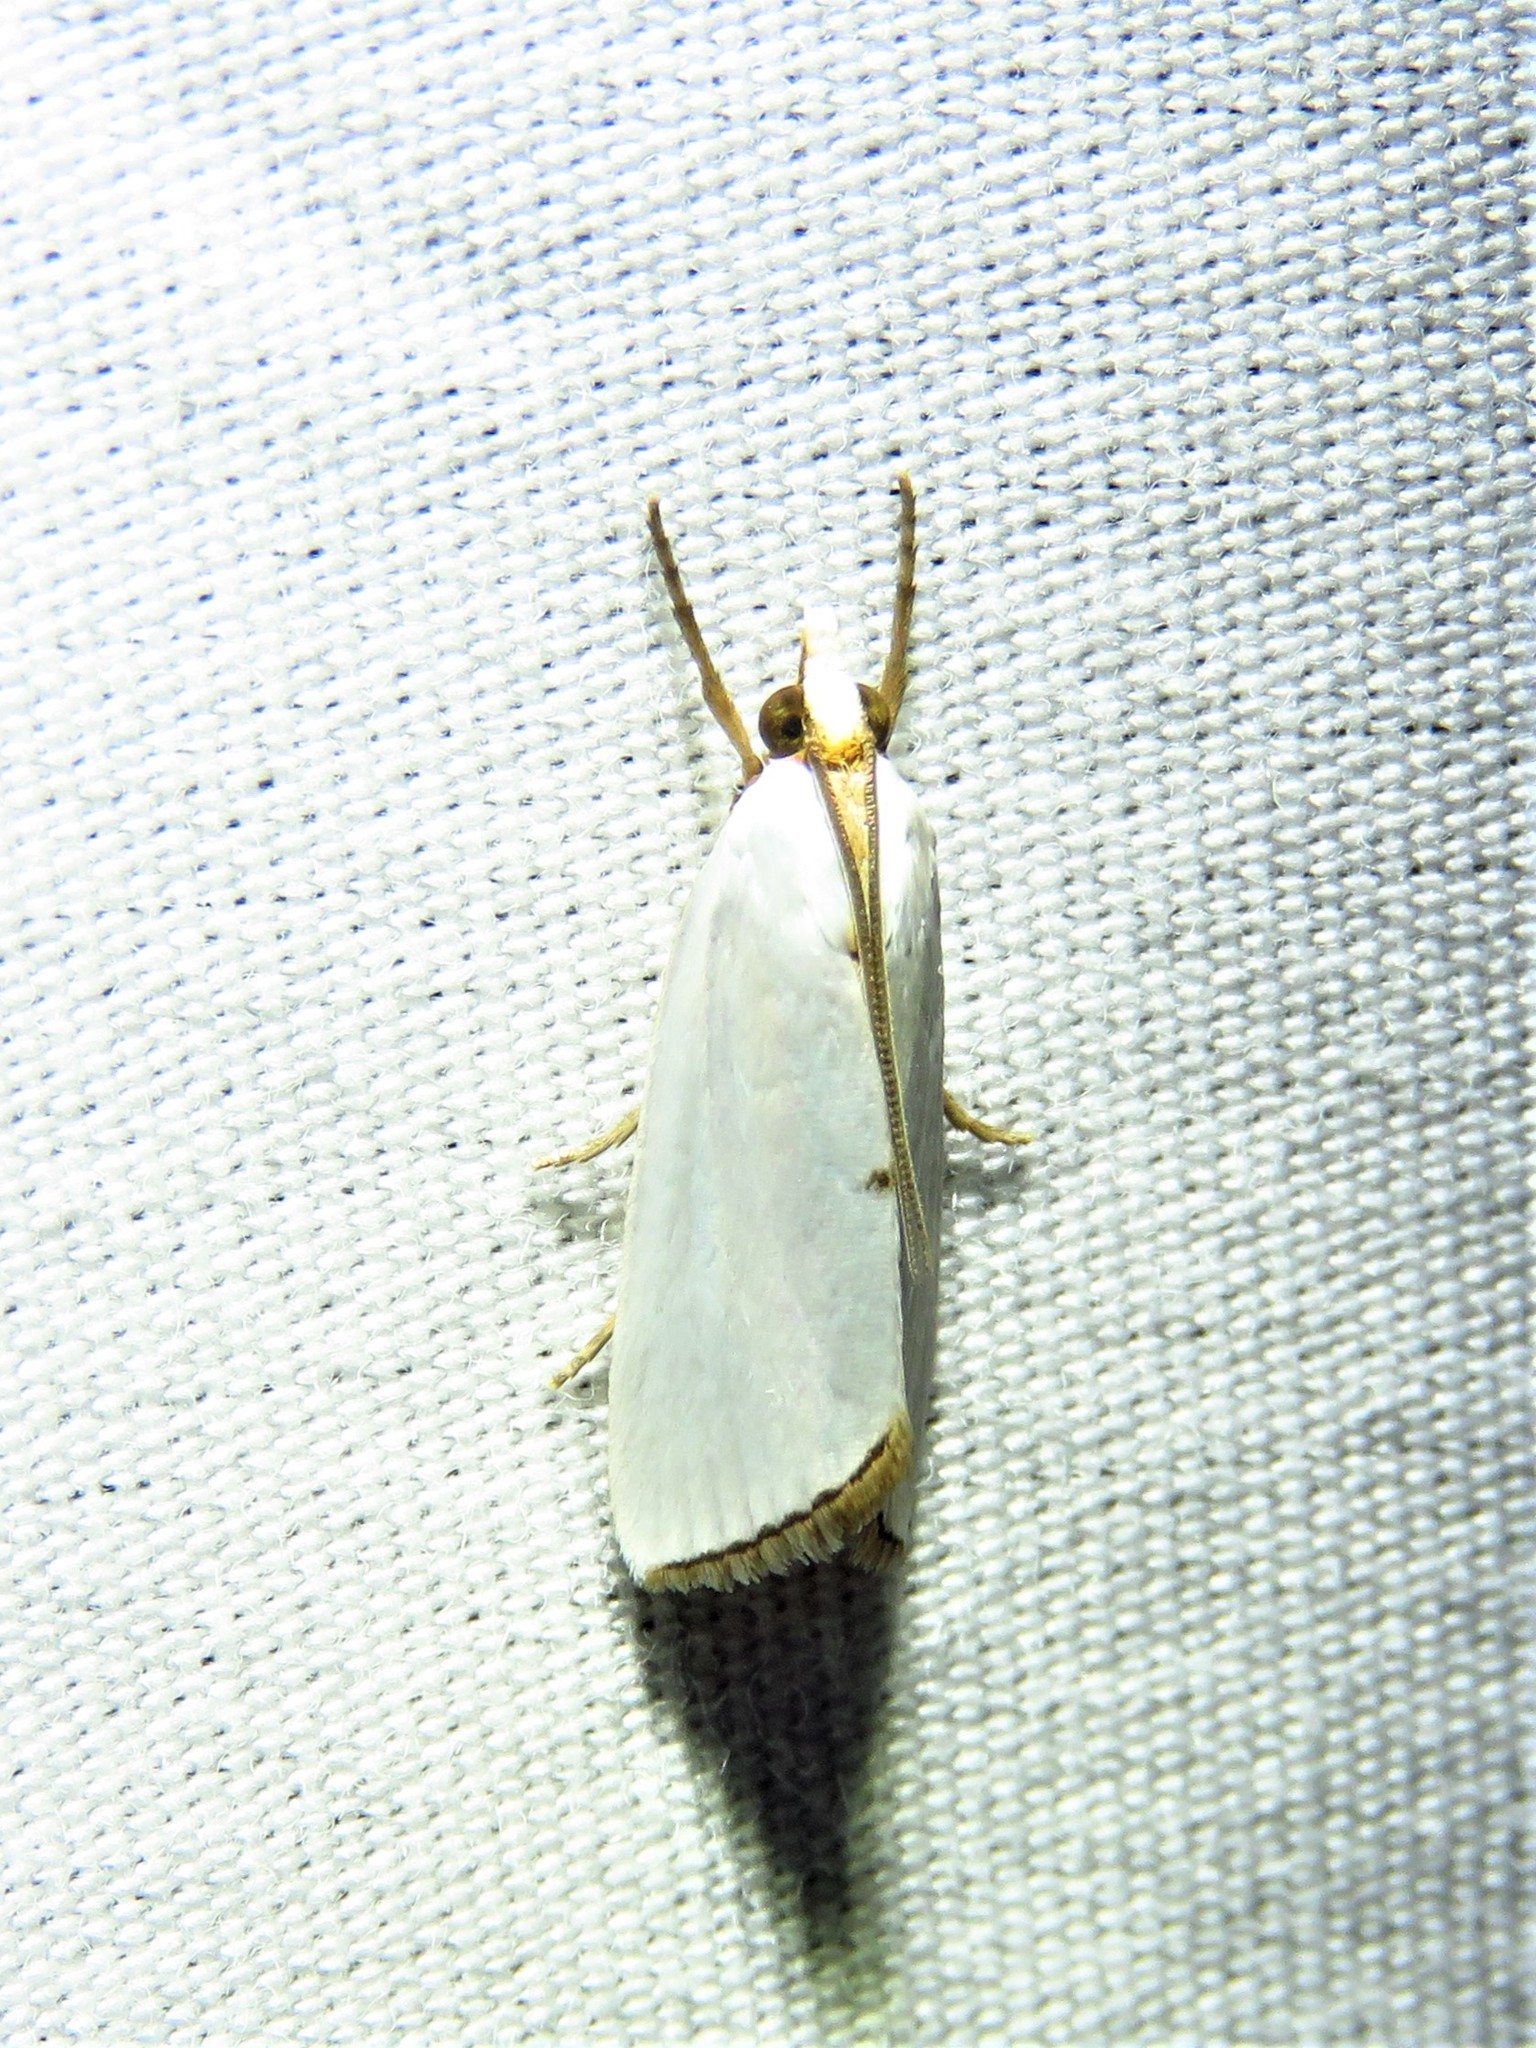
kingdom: Animalia
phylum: Arthropoda
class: Insecta
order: Lepidoptera
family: Crambidae
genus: Argyria
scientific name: Argyria nivalis
